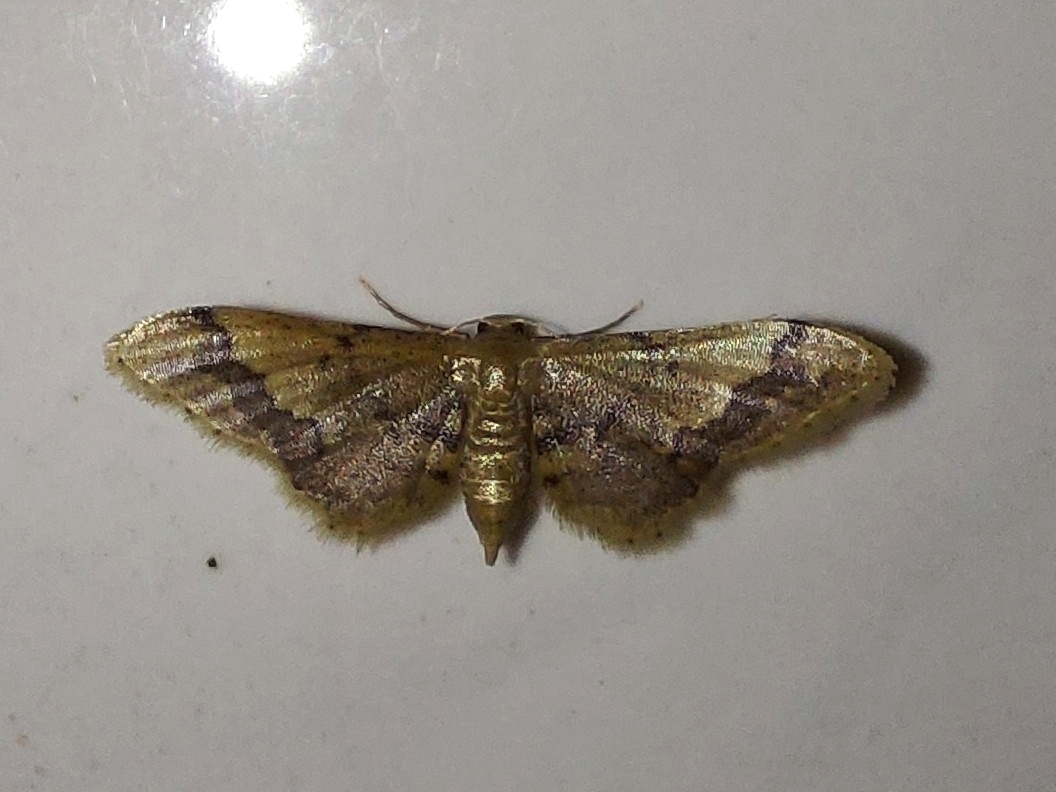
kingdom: Animalia
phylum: Arthropoda
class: Insecta
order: Lepidoptera
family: Geometridae
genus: Idaea
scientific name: Idaea violacea
